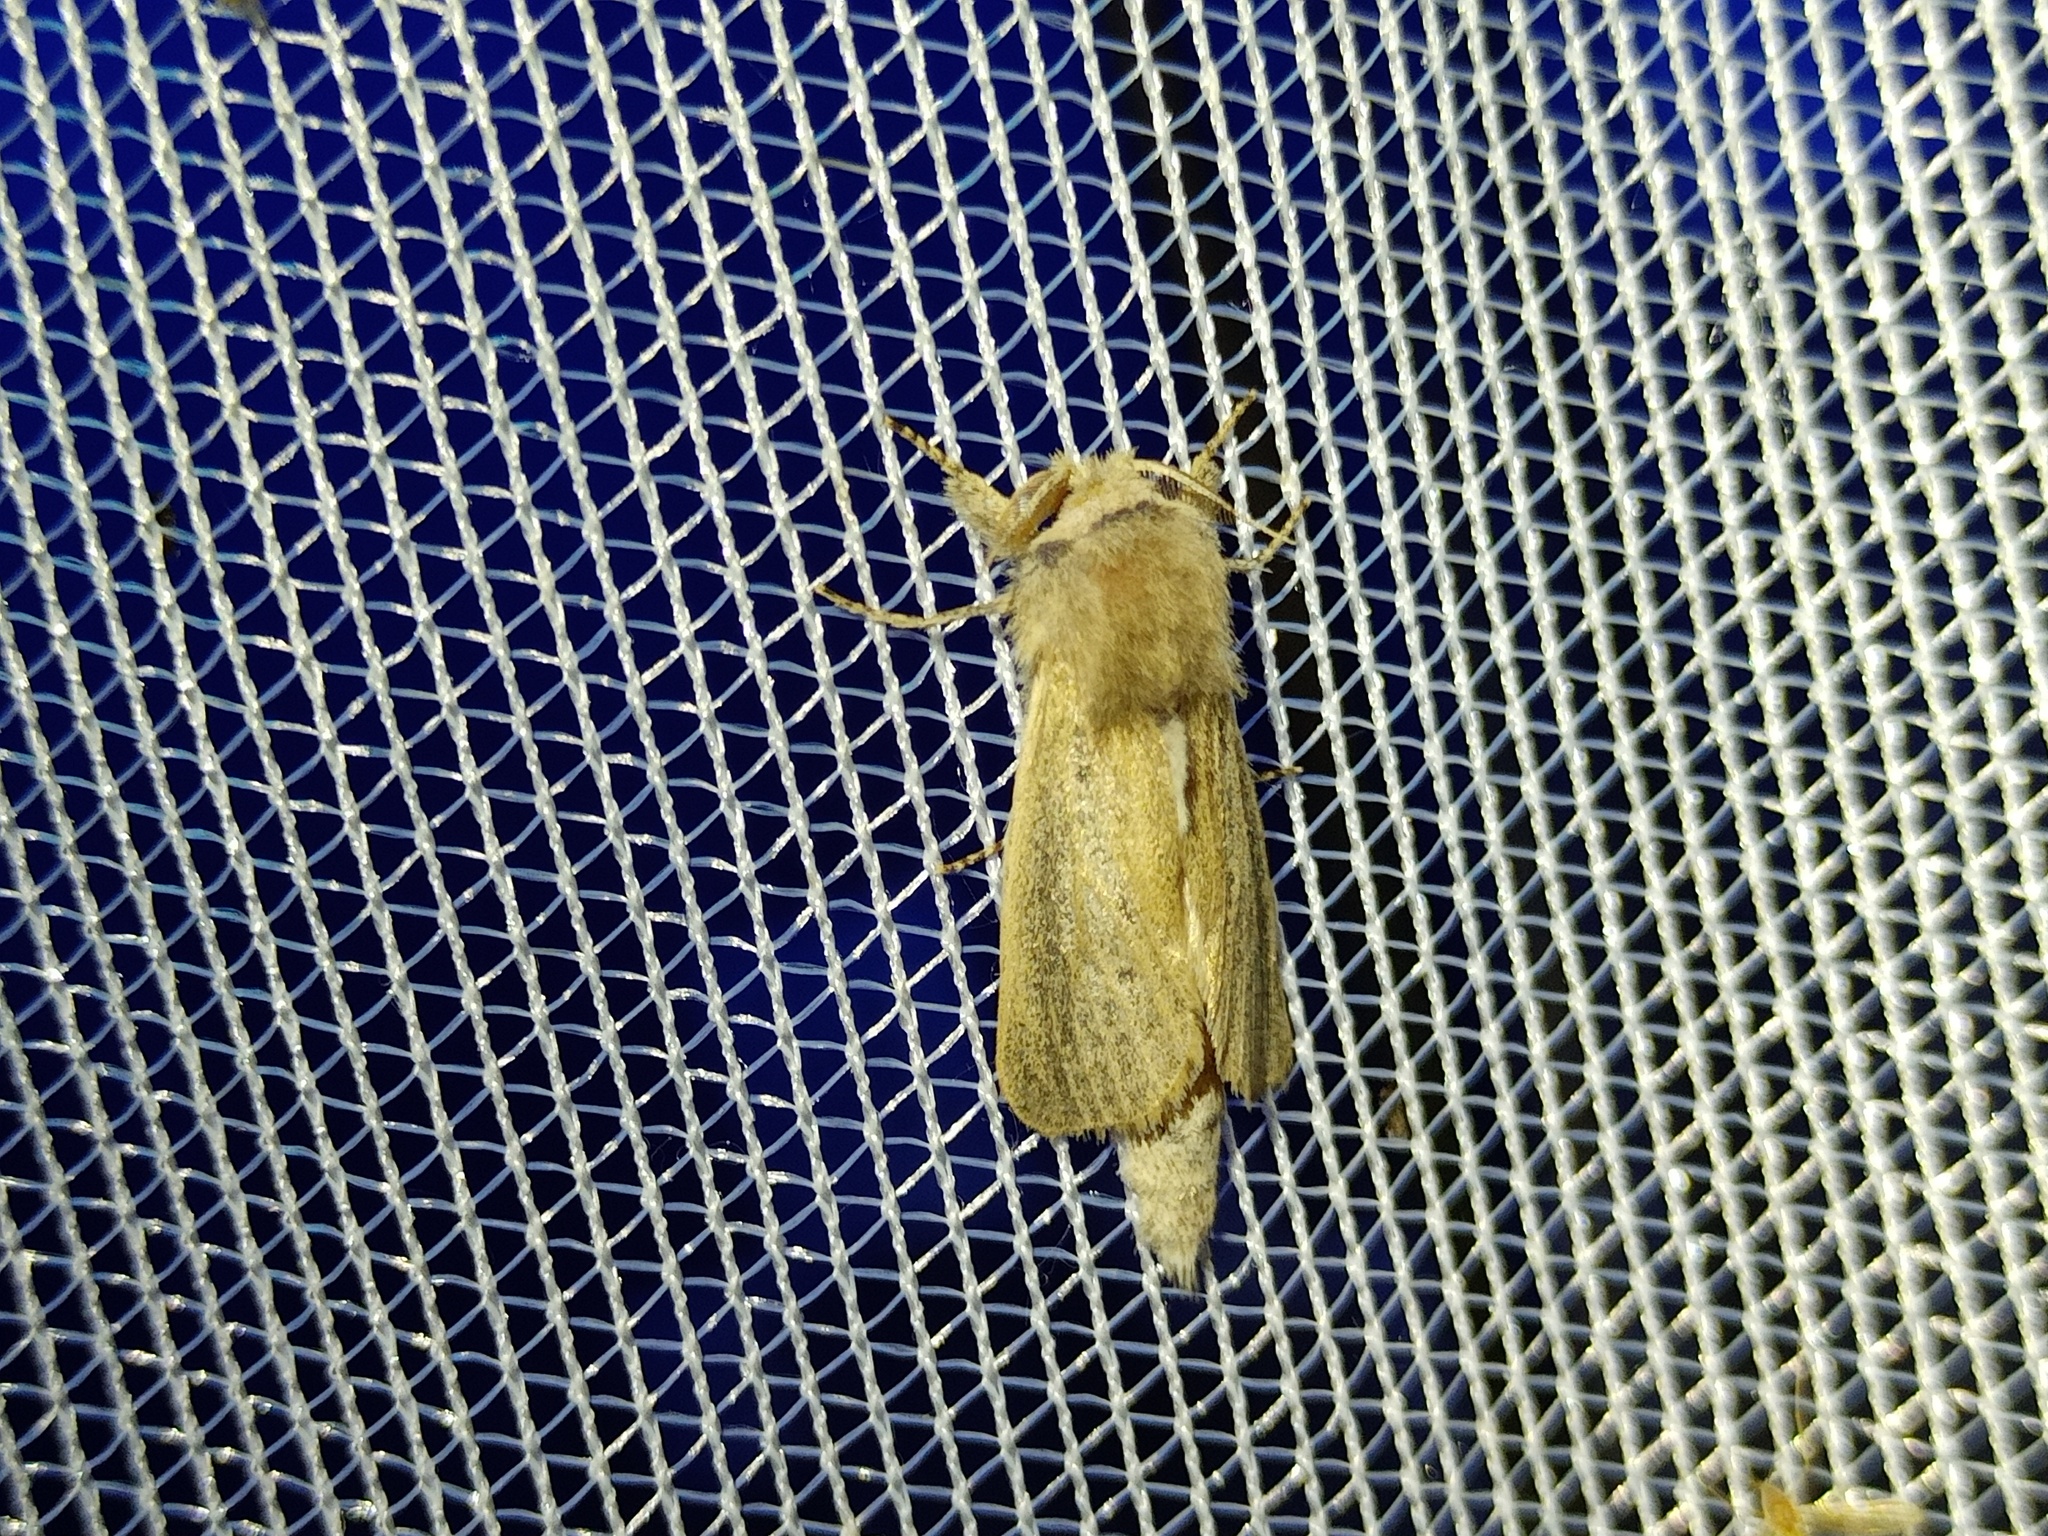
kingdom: Animalia
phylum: Arthropoda
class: Insecta
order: Lepidoptera
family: Cossidae
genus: Phragmataecia
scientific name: Phragmataecia castaneae
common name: Reed leopard
